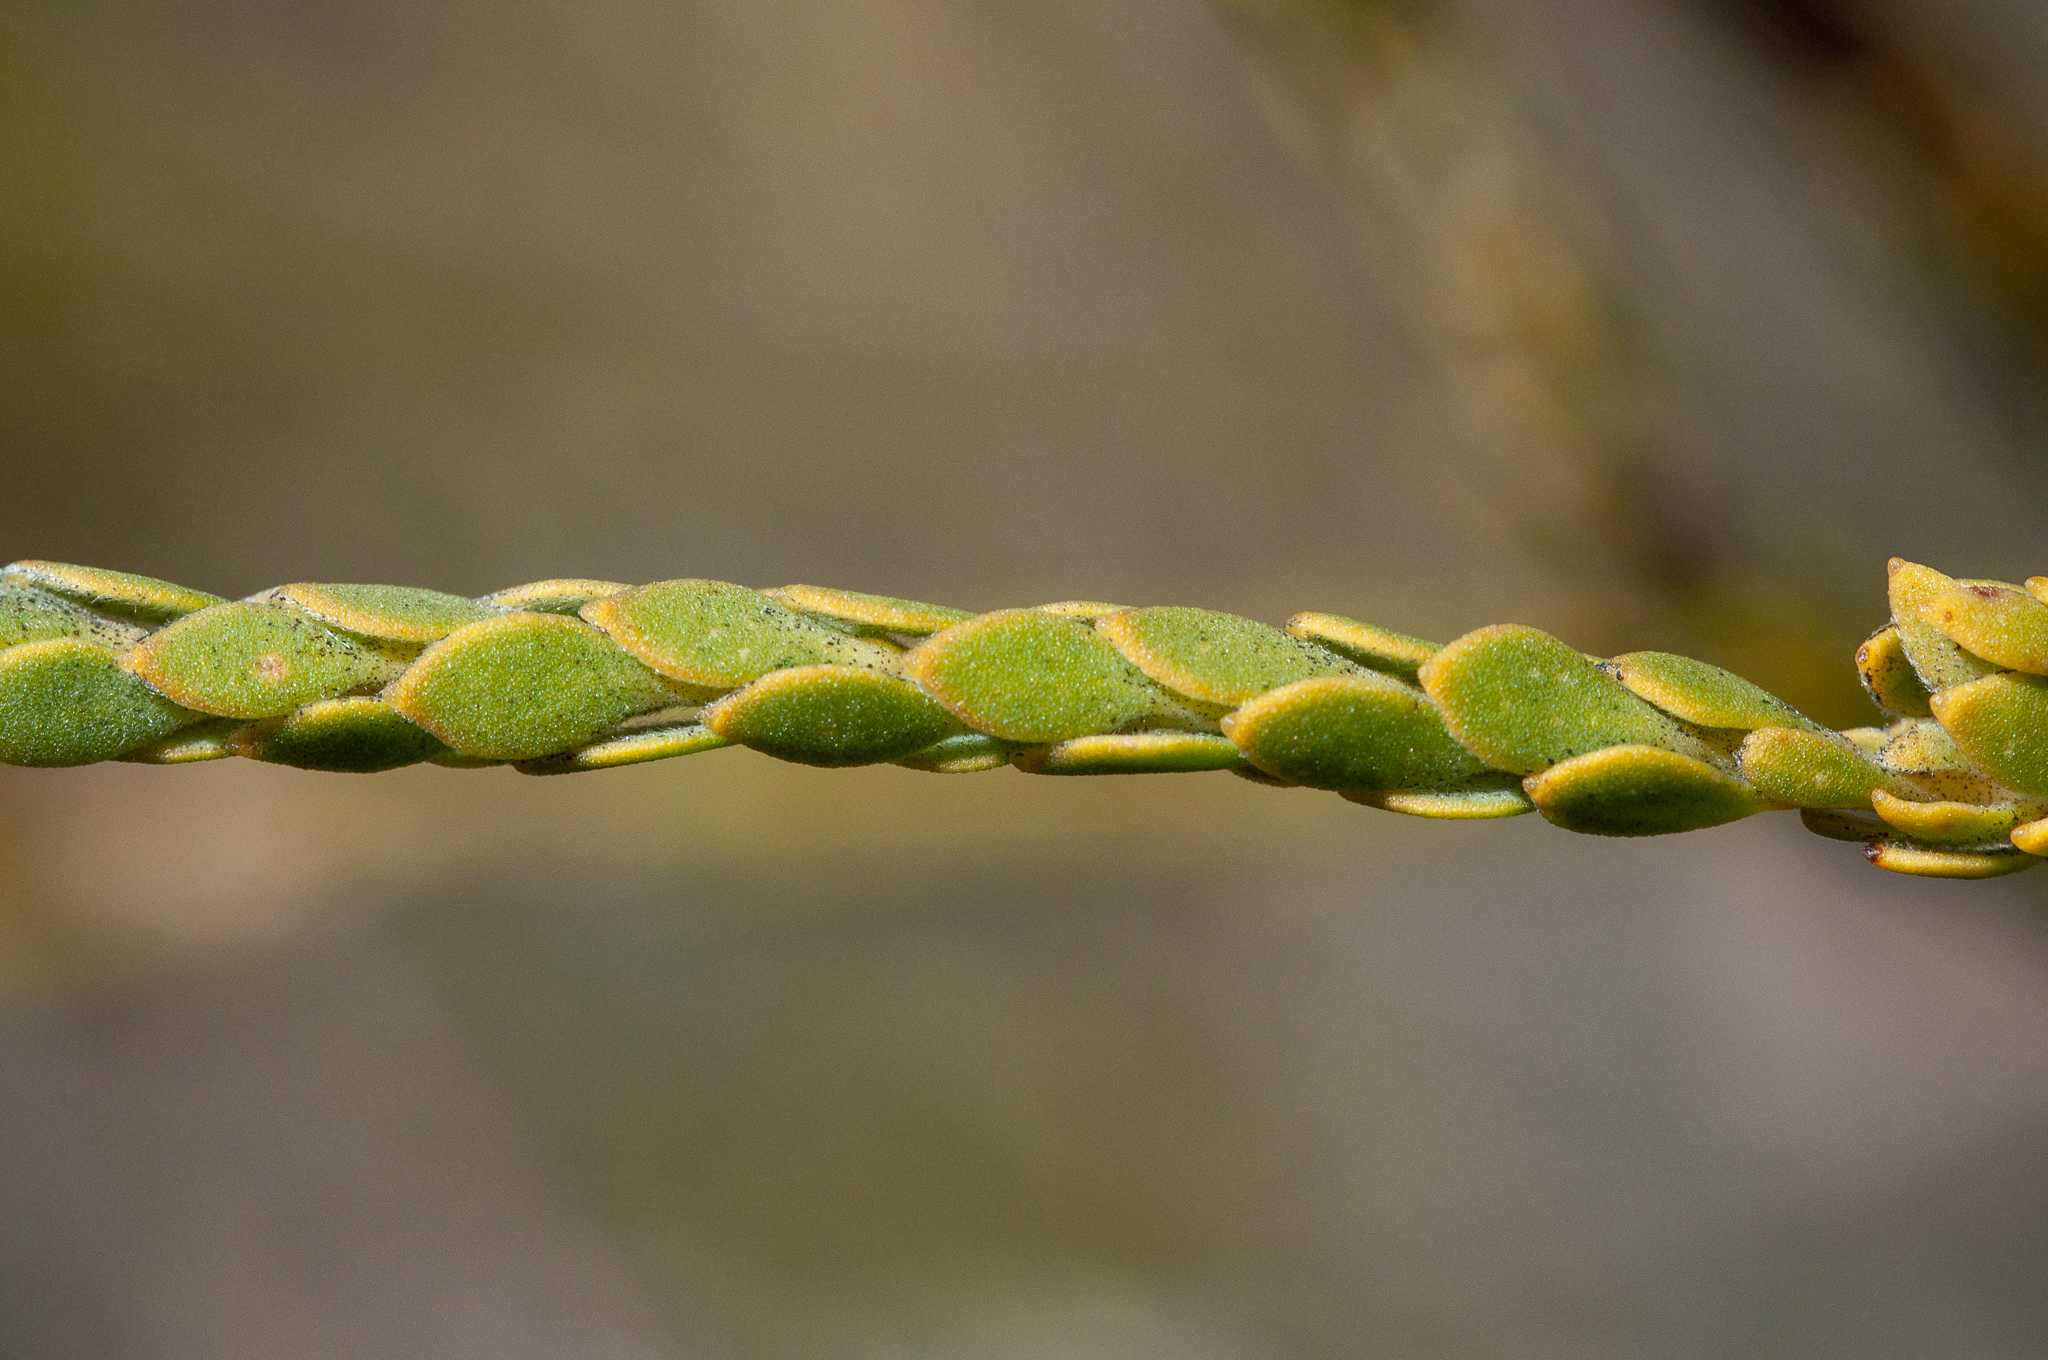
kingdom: Plantae
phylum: Tracheophyta
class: Magnoliopsida
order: Proteales
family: Proteaceae
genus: Leucadendron
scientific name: Leucadendron dubium
